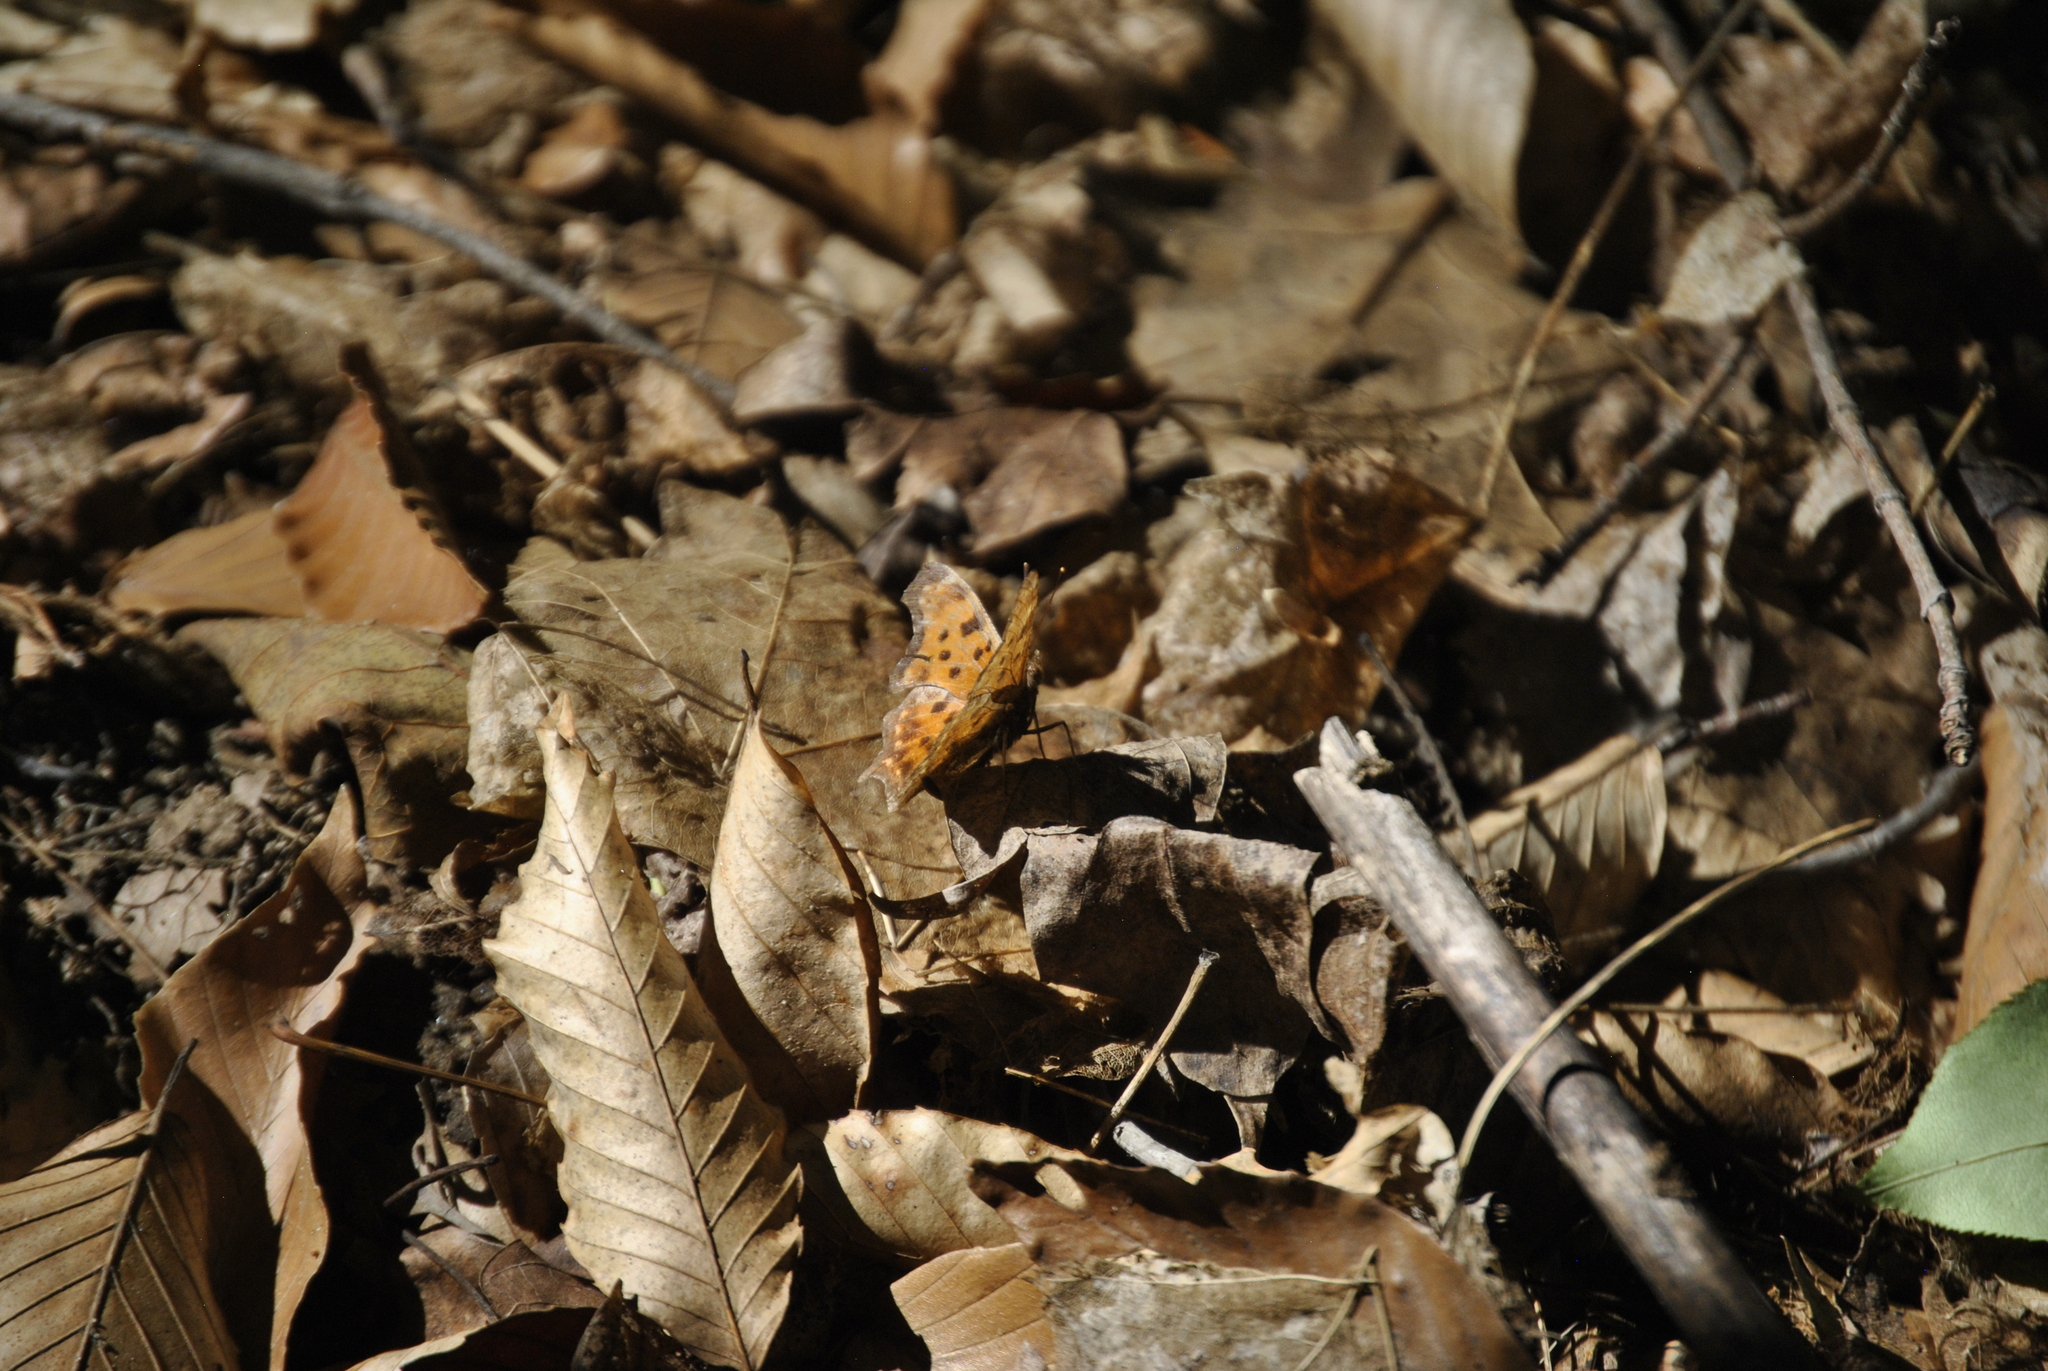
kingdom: Animalia
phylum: Arthropoda
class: Insecta
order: Lepidoptera
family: Nymphalidae
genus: Polygonia
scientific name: Polygonia comma
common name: Eastern comma
